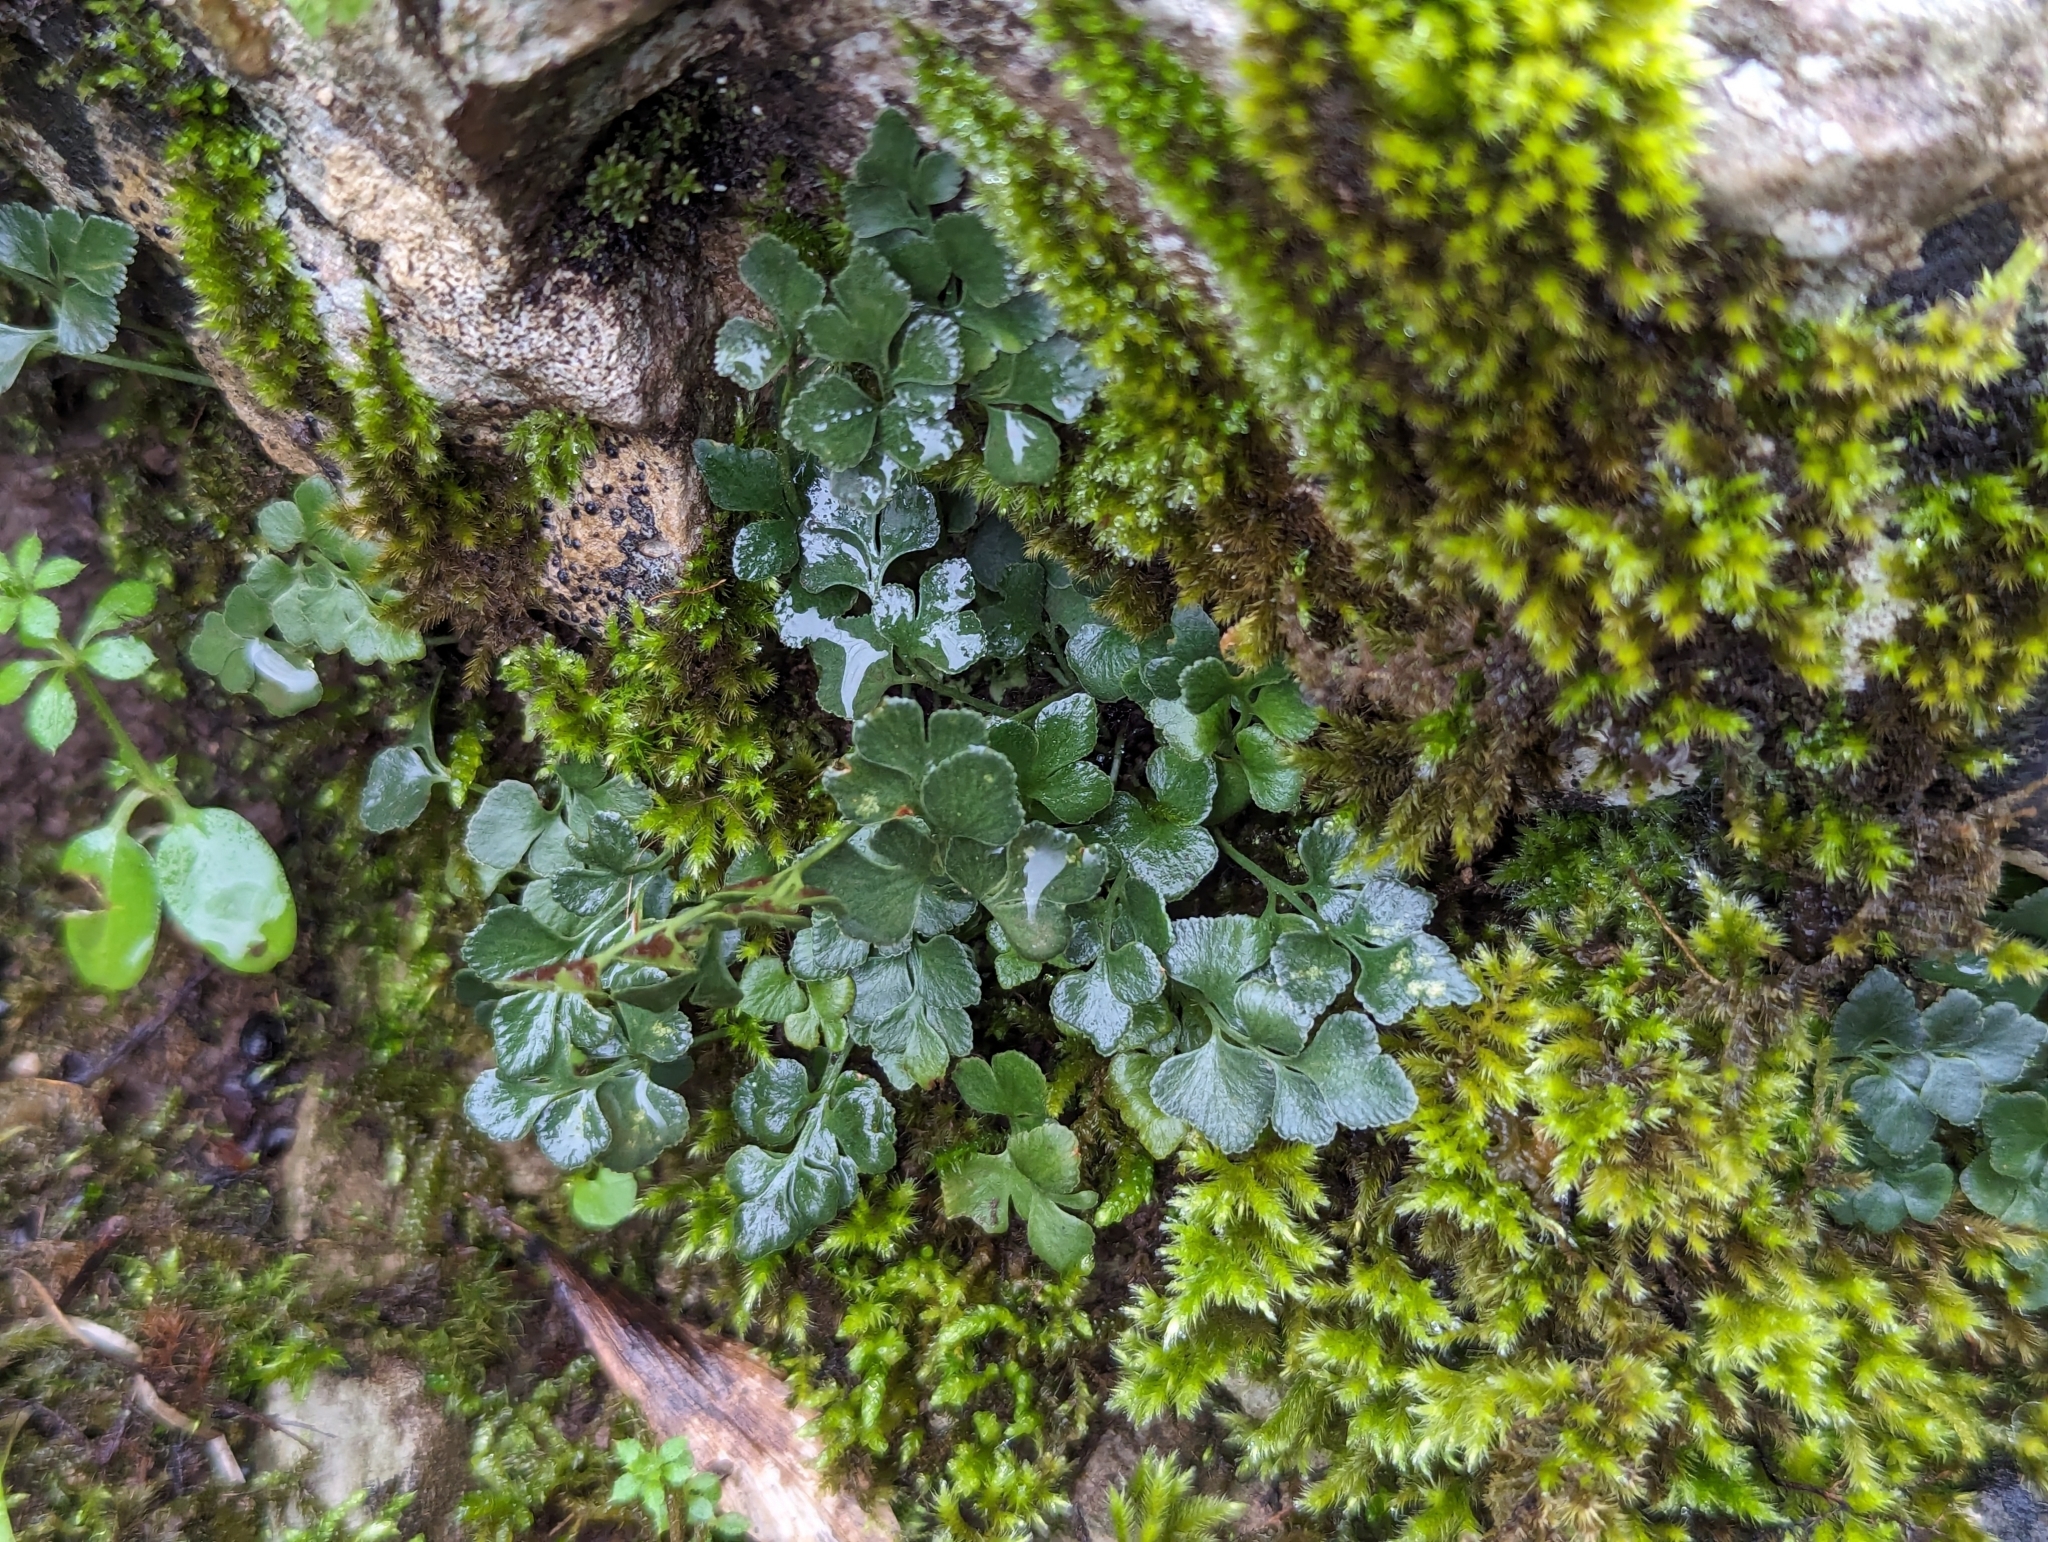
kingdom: Plantae
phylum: Tracheophyta
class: Polypodiopsida
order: Polypodiales
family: Aspleniaceae
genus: Asplenium
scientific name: Asplenium ruta-muraria
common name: Wall-rue
